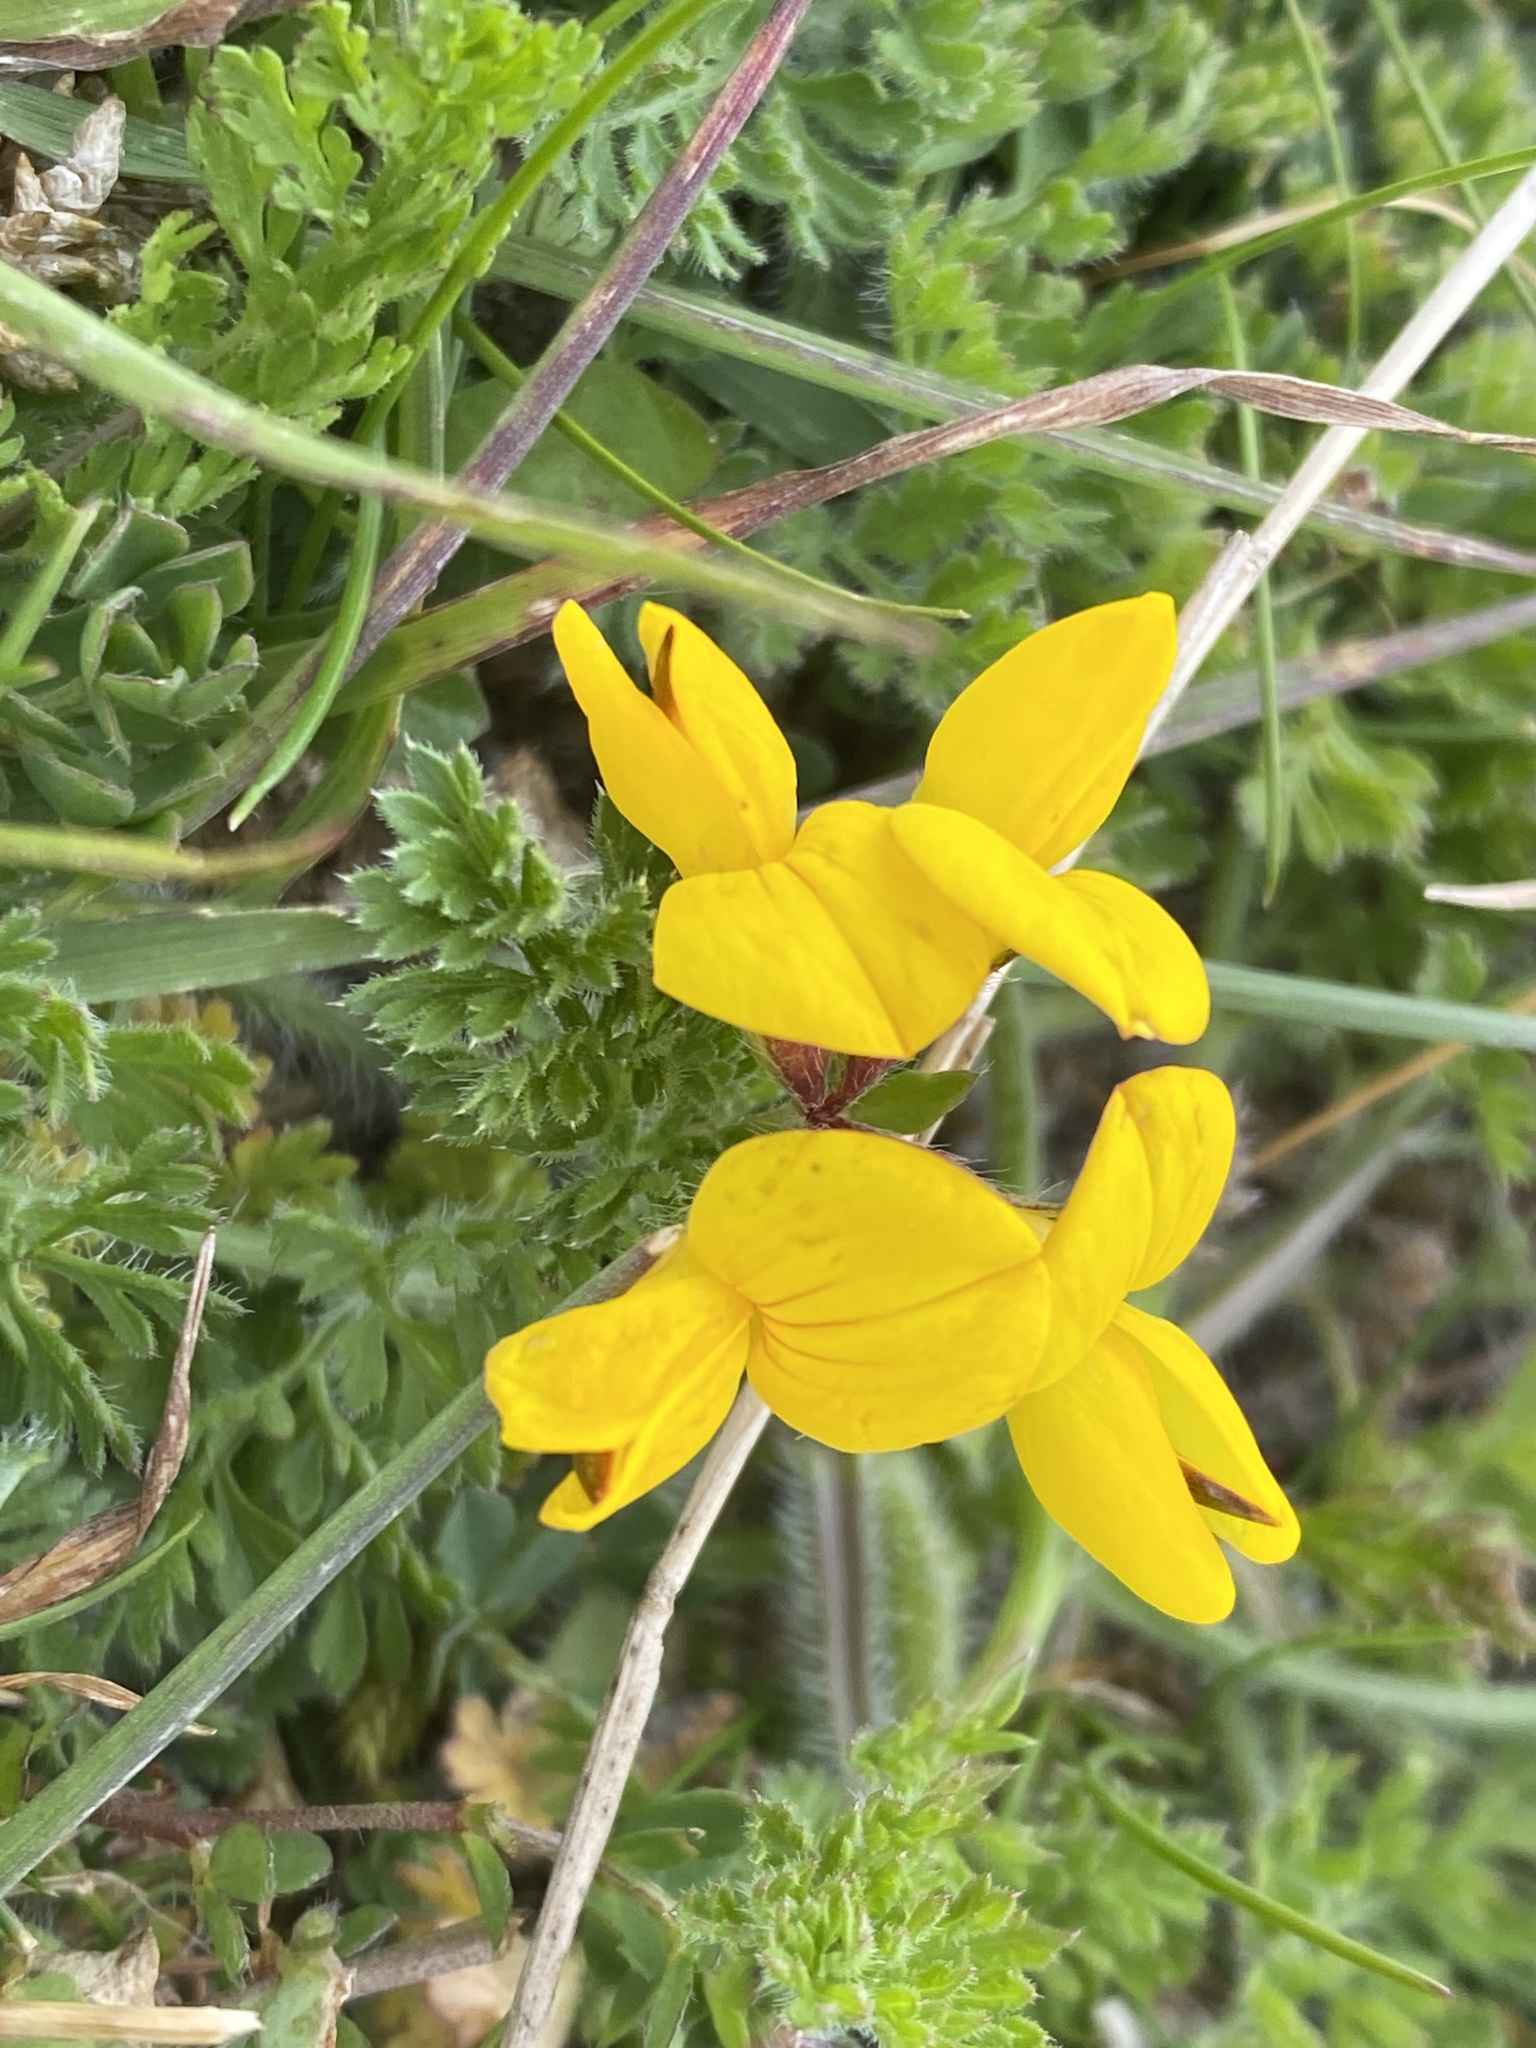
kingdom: Plantae
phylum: Tracheophyta
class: Magnoliopsida
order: Fabales
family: Fabaceae
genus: Lotus
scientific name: Lotus corniculatus
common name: Common bird's-foot-trefoil
